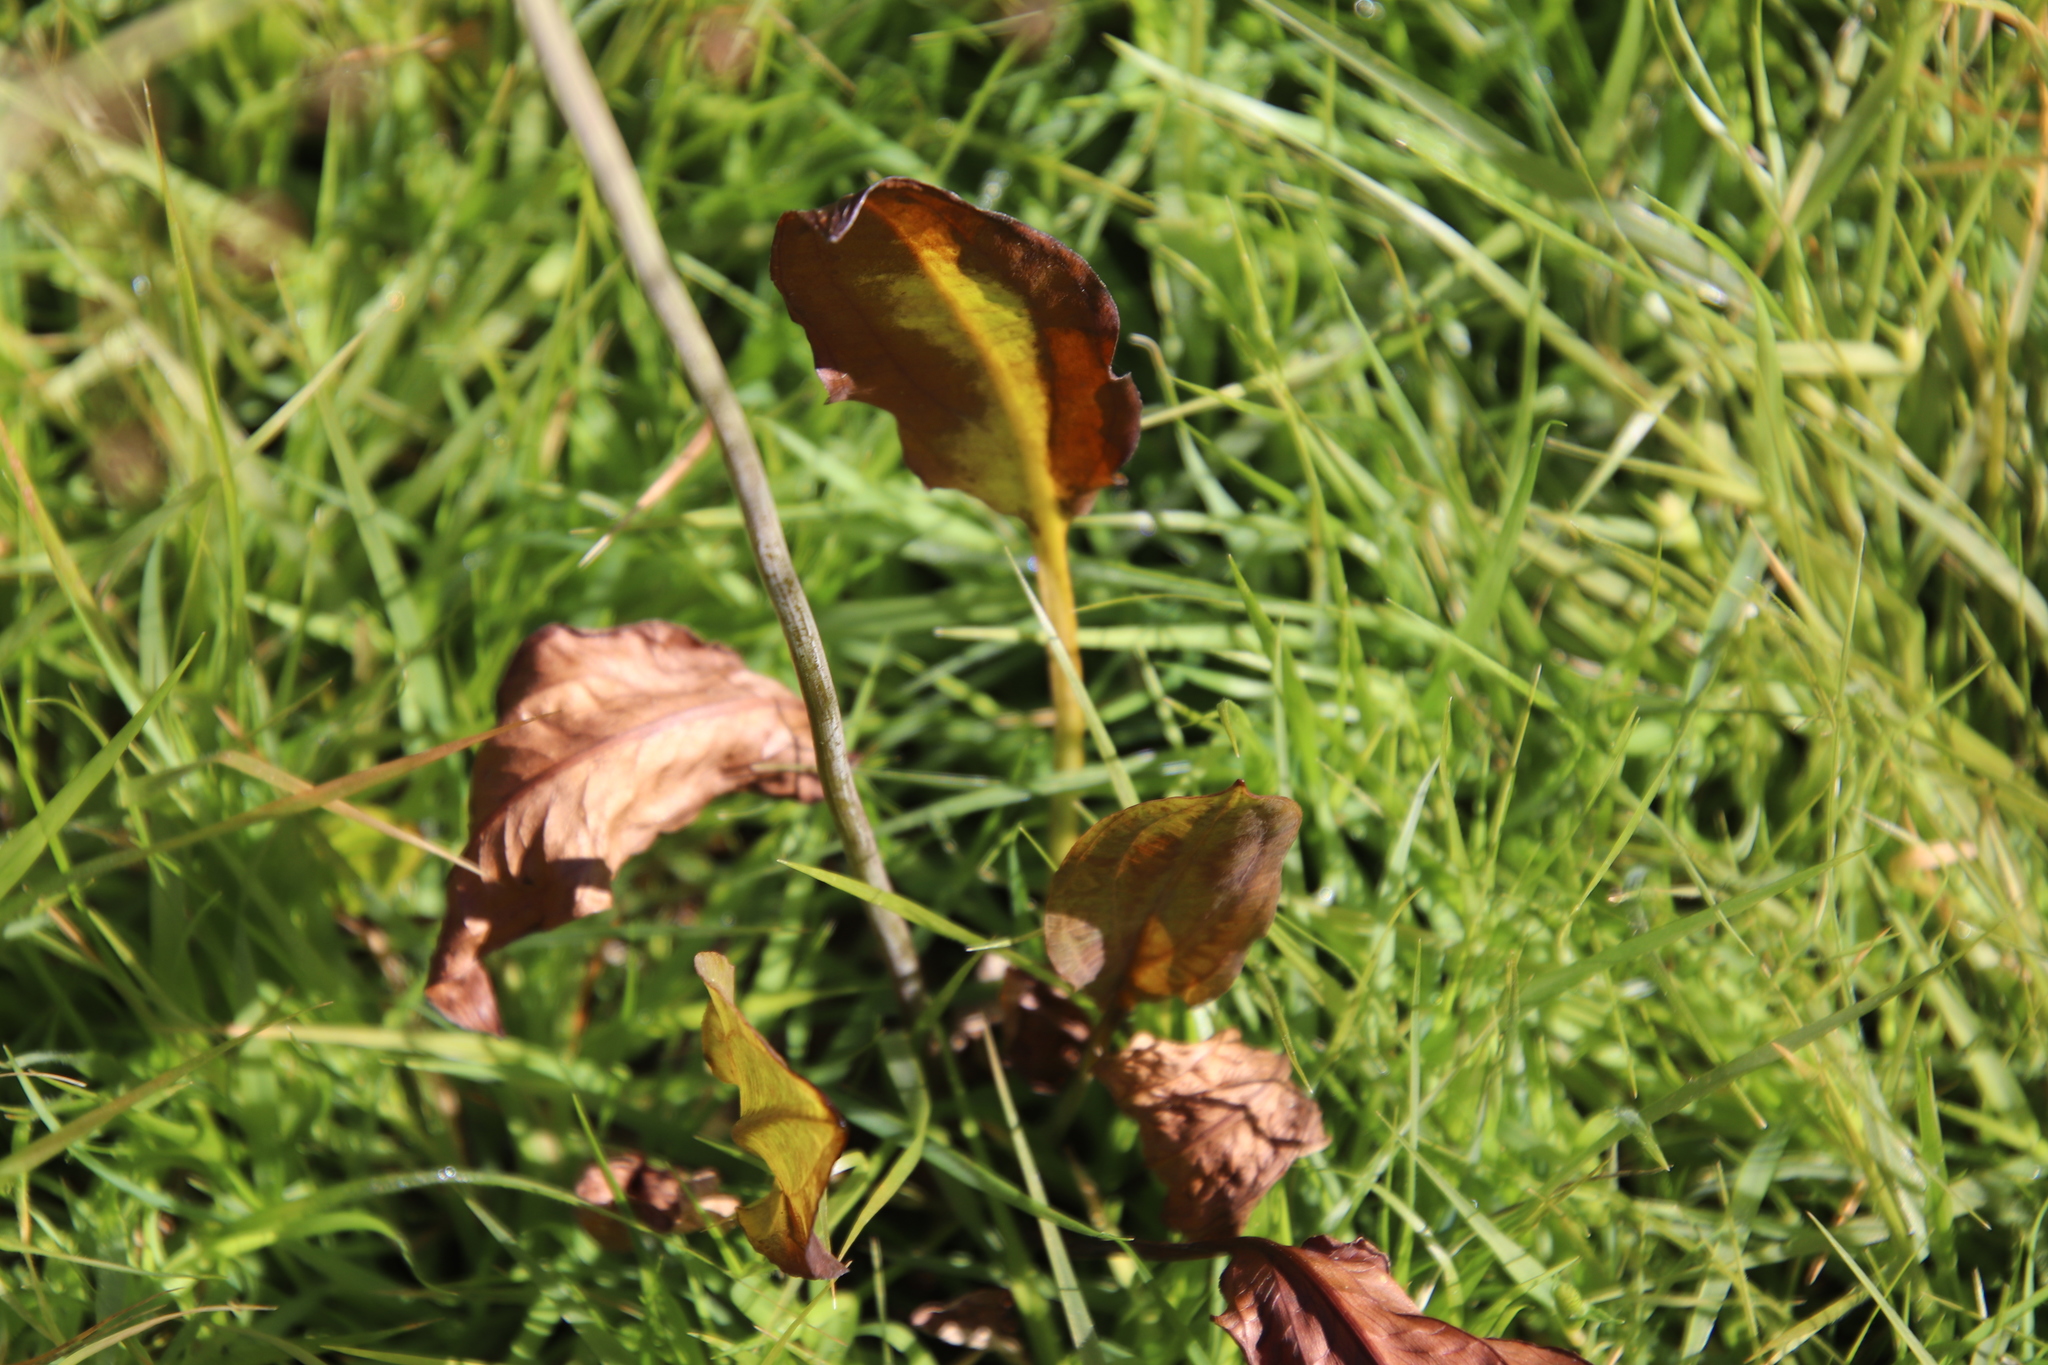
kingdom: Plantae
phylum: Tracheophyta
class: Liliopsida
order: Alismatales
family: Alismataceae
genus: Alisma
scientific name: Alisma triviale
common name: Northern water-plantain
